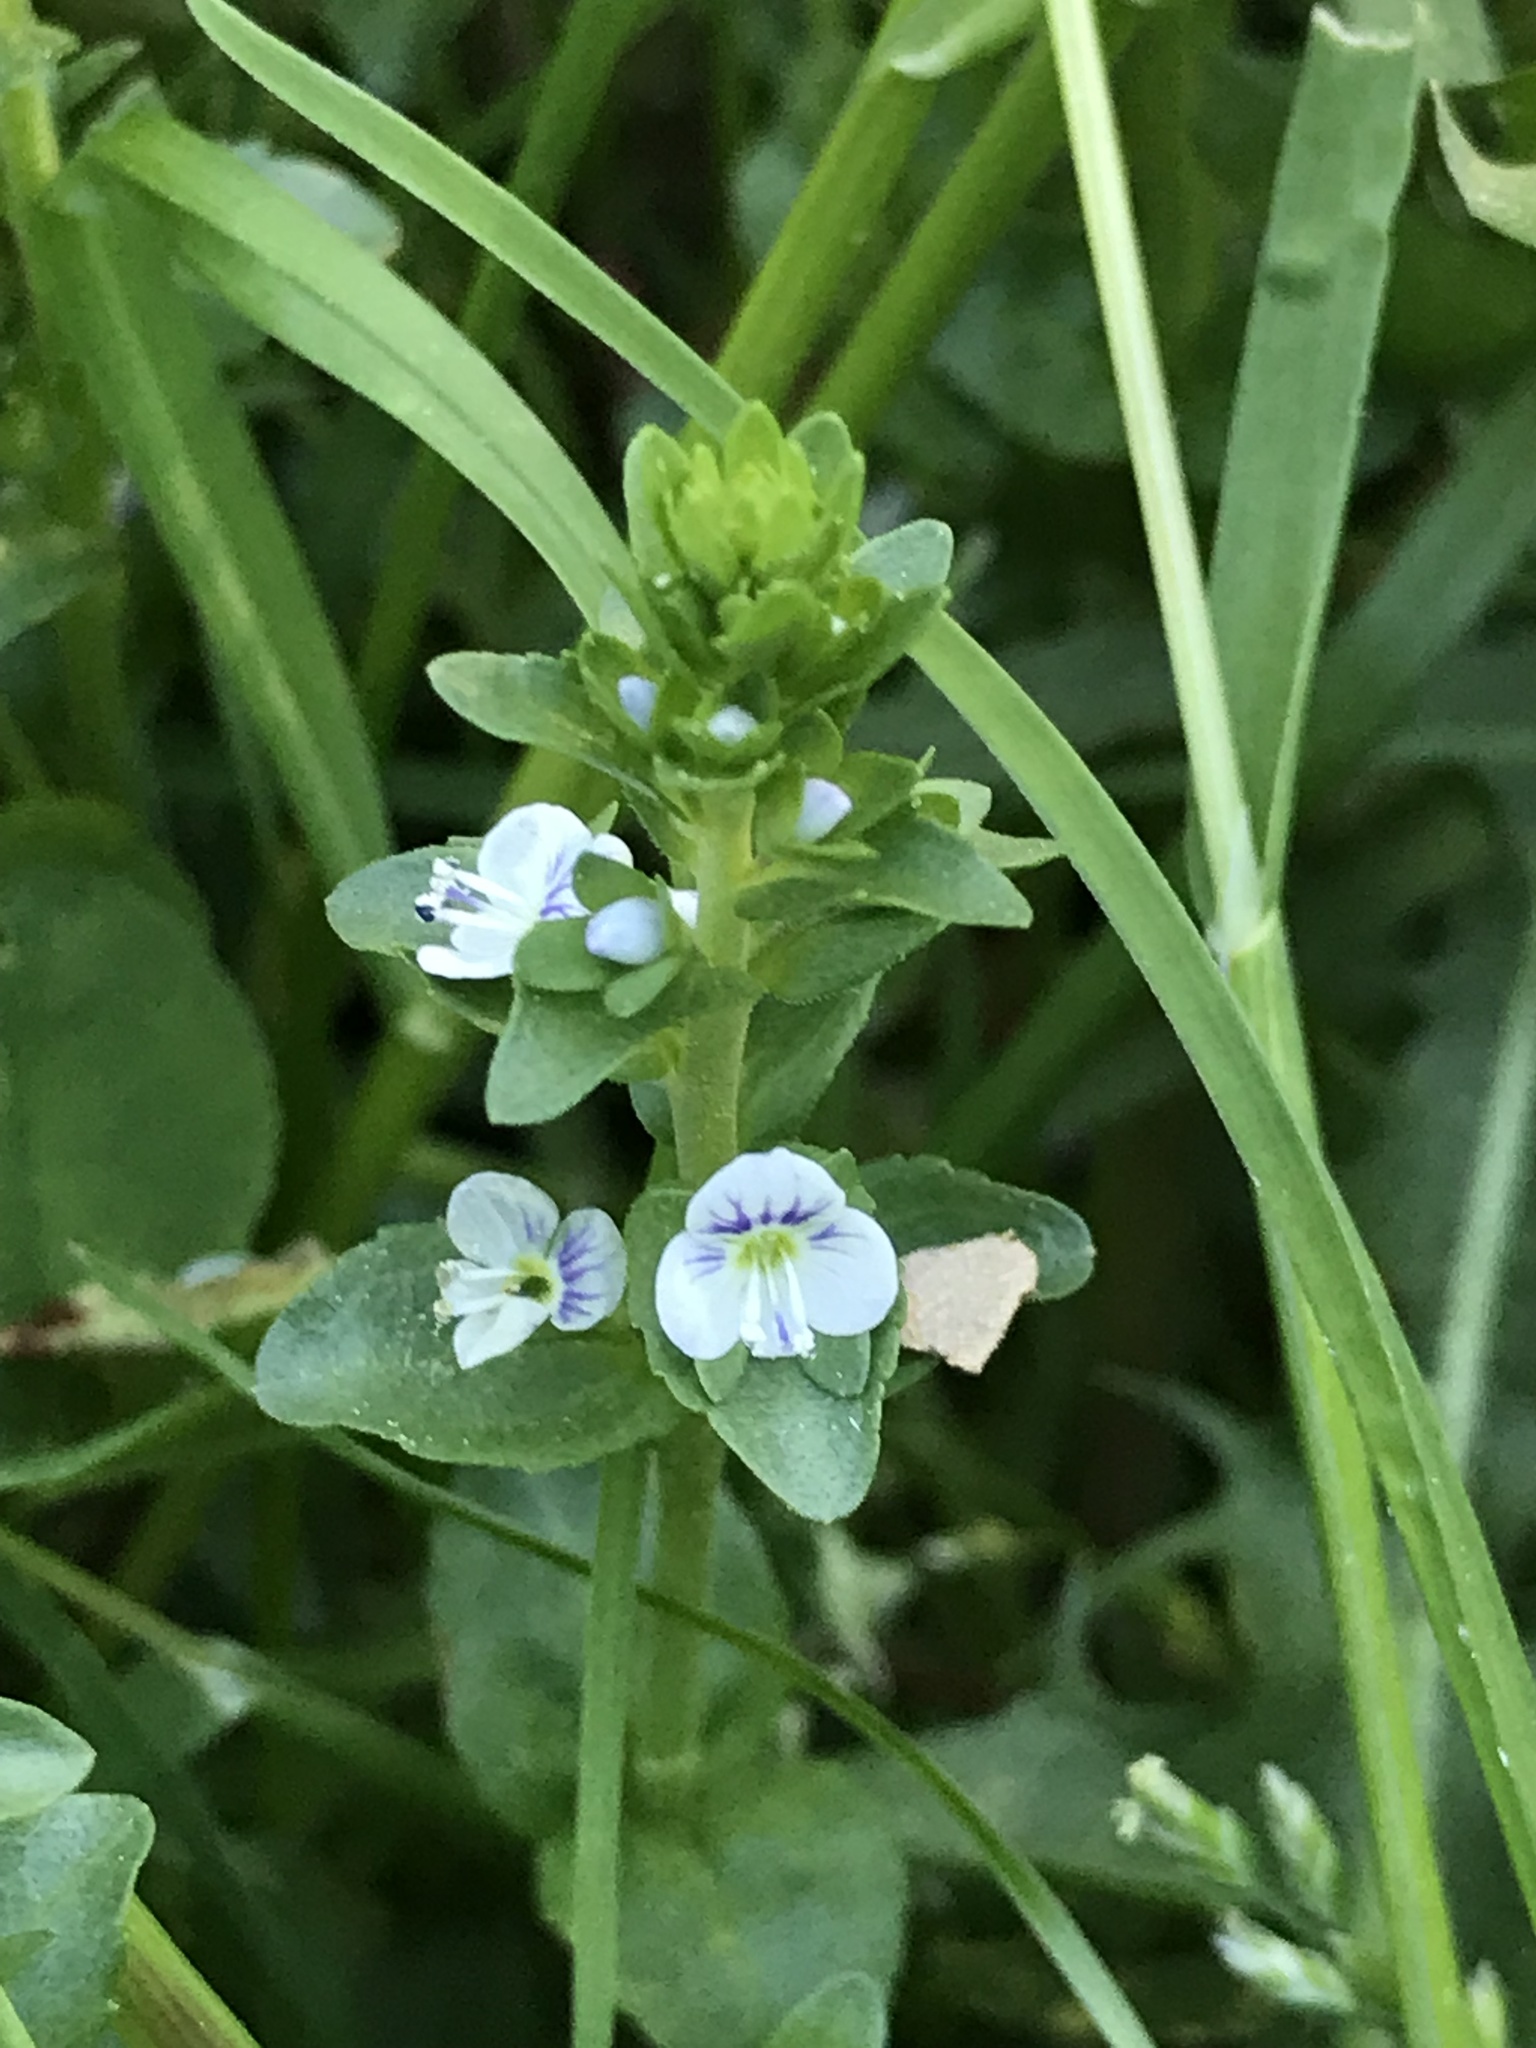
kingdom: Plantae
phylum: Tracheophyta
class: Magnoliopsida
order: Lamiales
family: Plantaginaceae
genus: Veronica
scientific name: Veronica serpyllifolia
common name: Thyme-leaved speedwell
